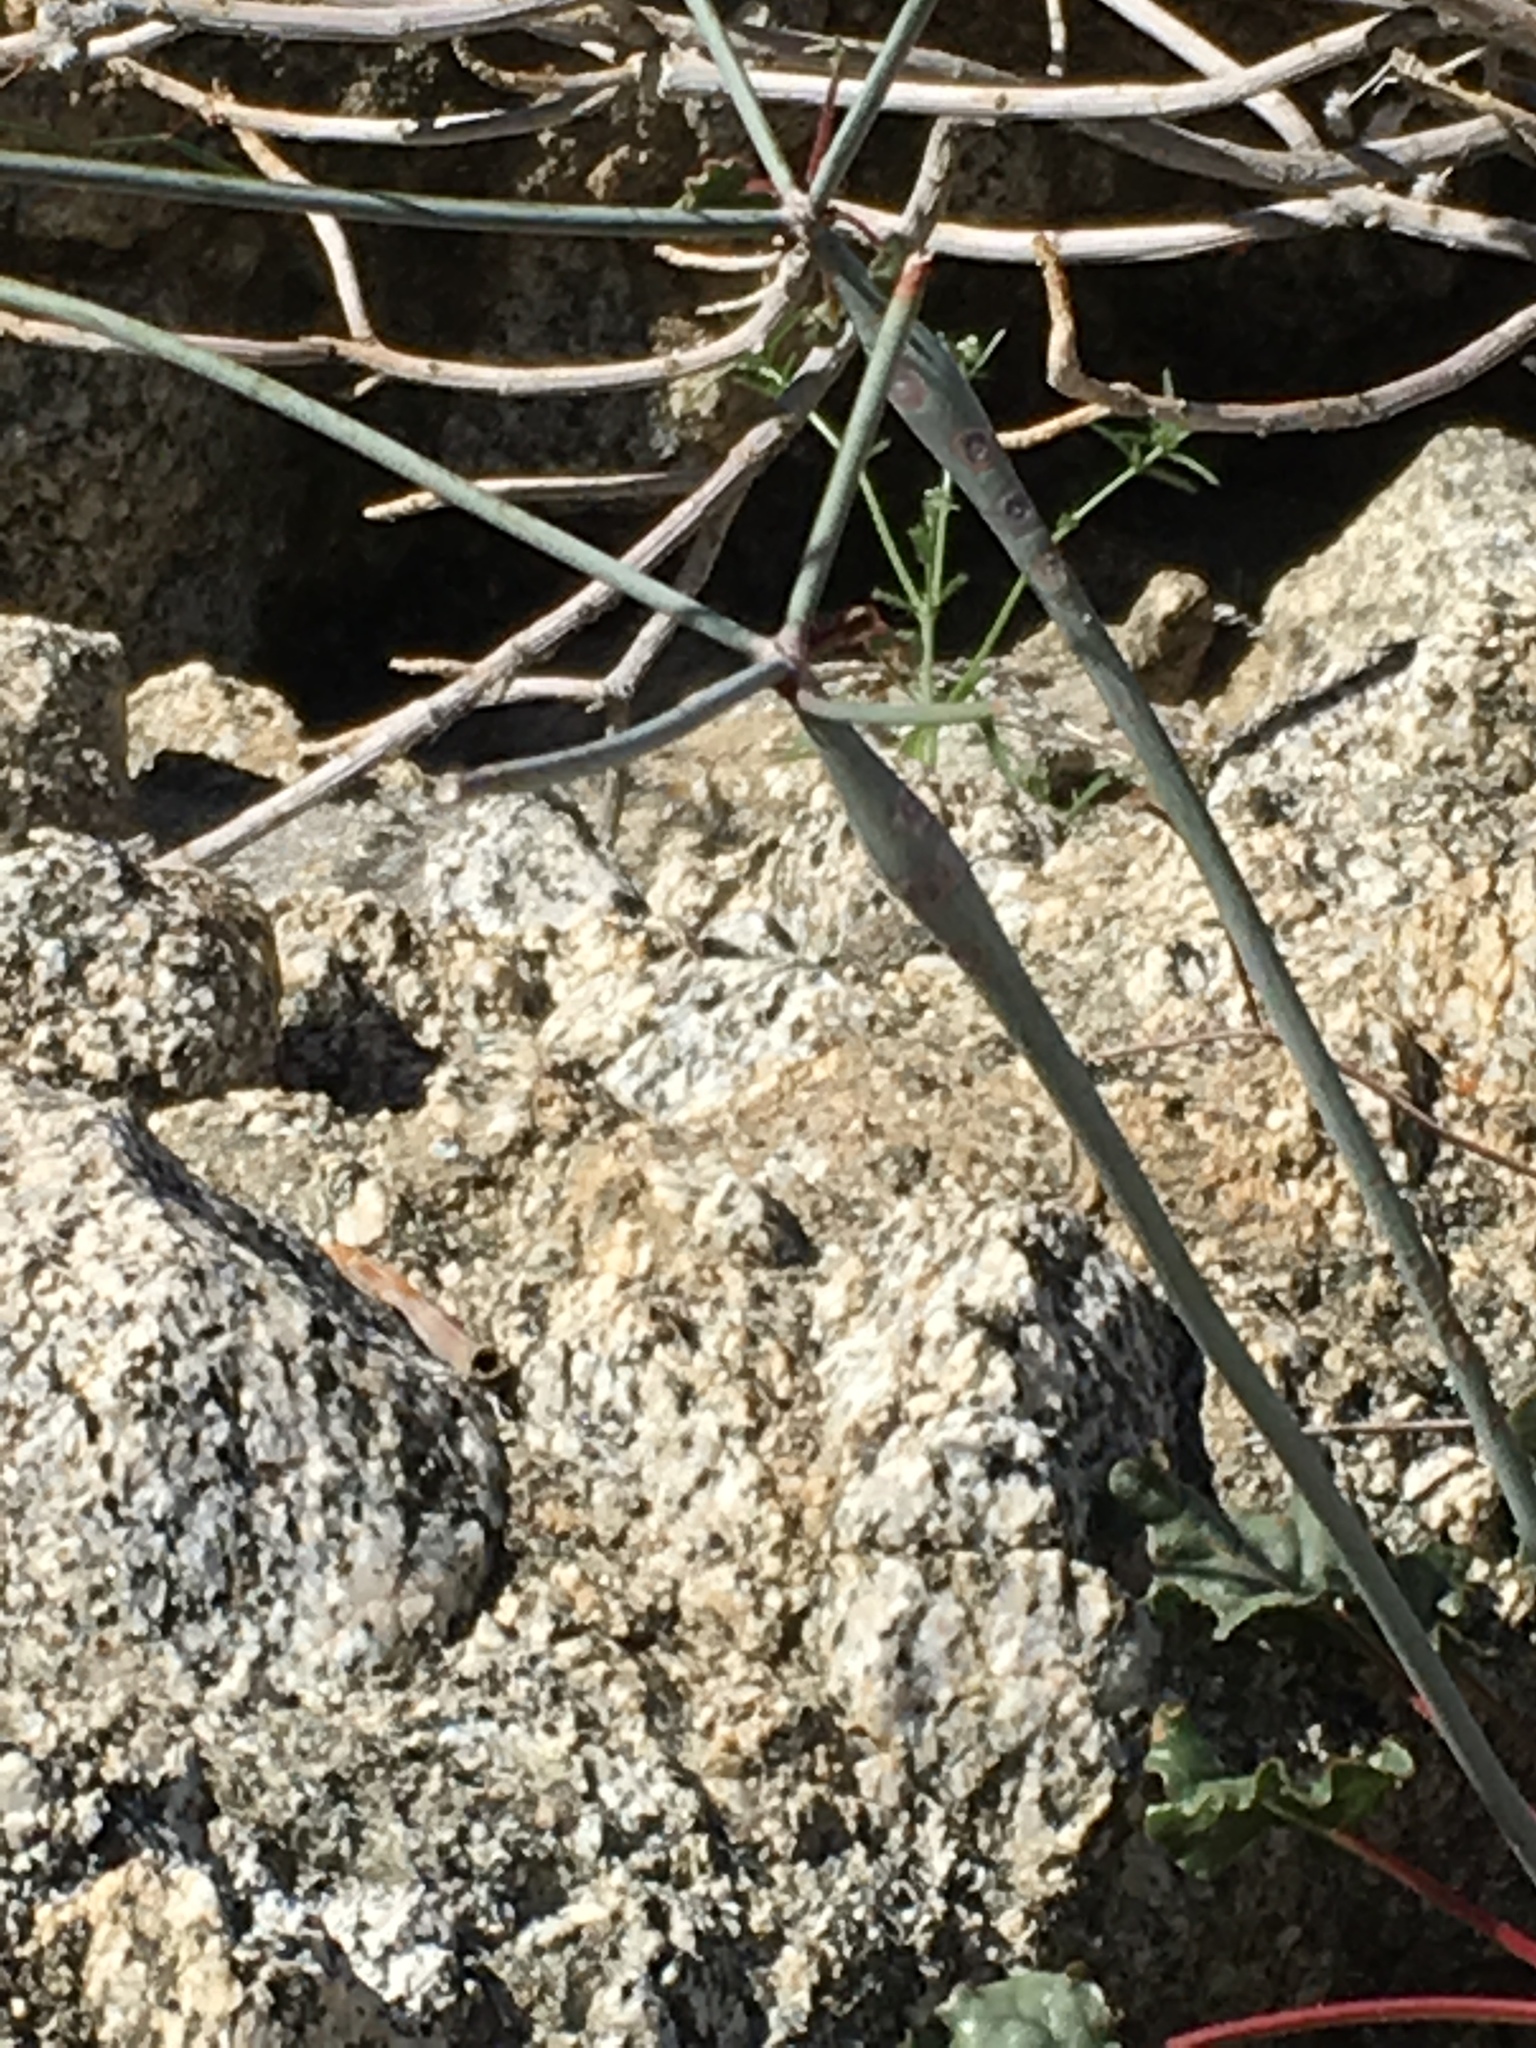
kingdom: Plantae
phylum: Tracheophyta
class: Magnoliopsida
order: Caryophyllales
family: Polygonaceae
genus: Eriogonum
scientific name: Eriogonum inflatum
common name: Desert trumpet
